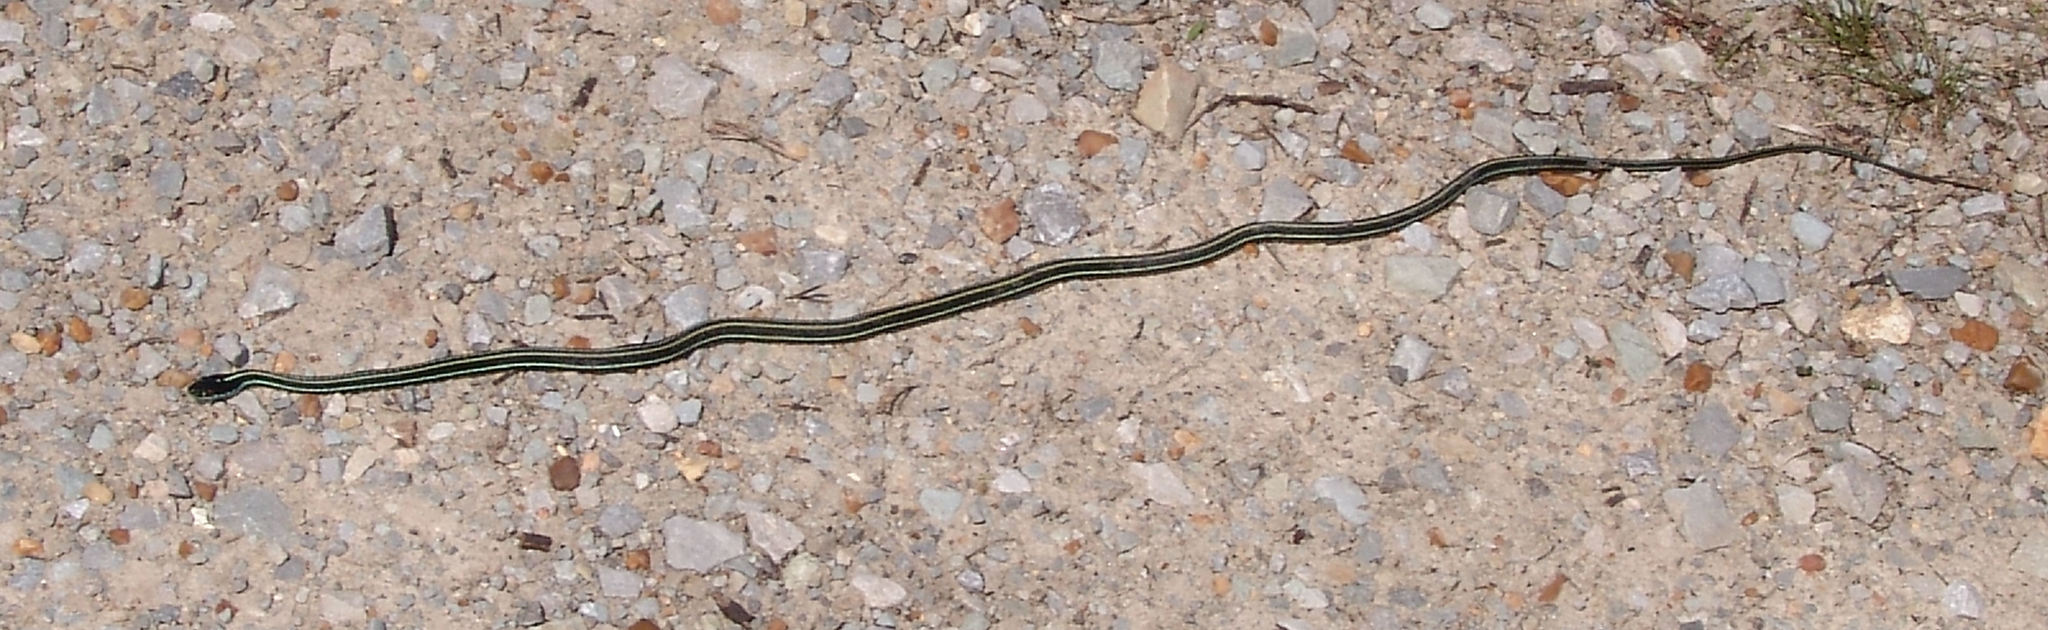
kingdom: Animalia
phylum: Chordata
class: Squamata
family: Colubridae
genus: Thamnophis
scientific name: Thamnophis proximus
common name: Western ribbon snake
